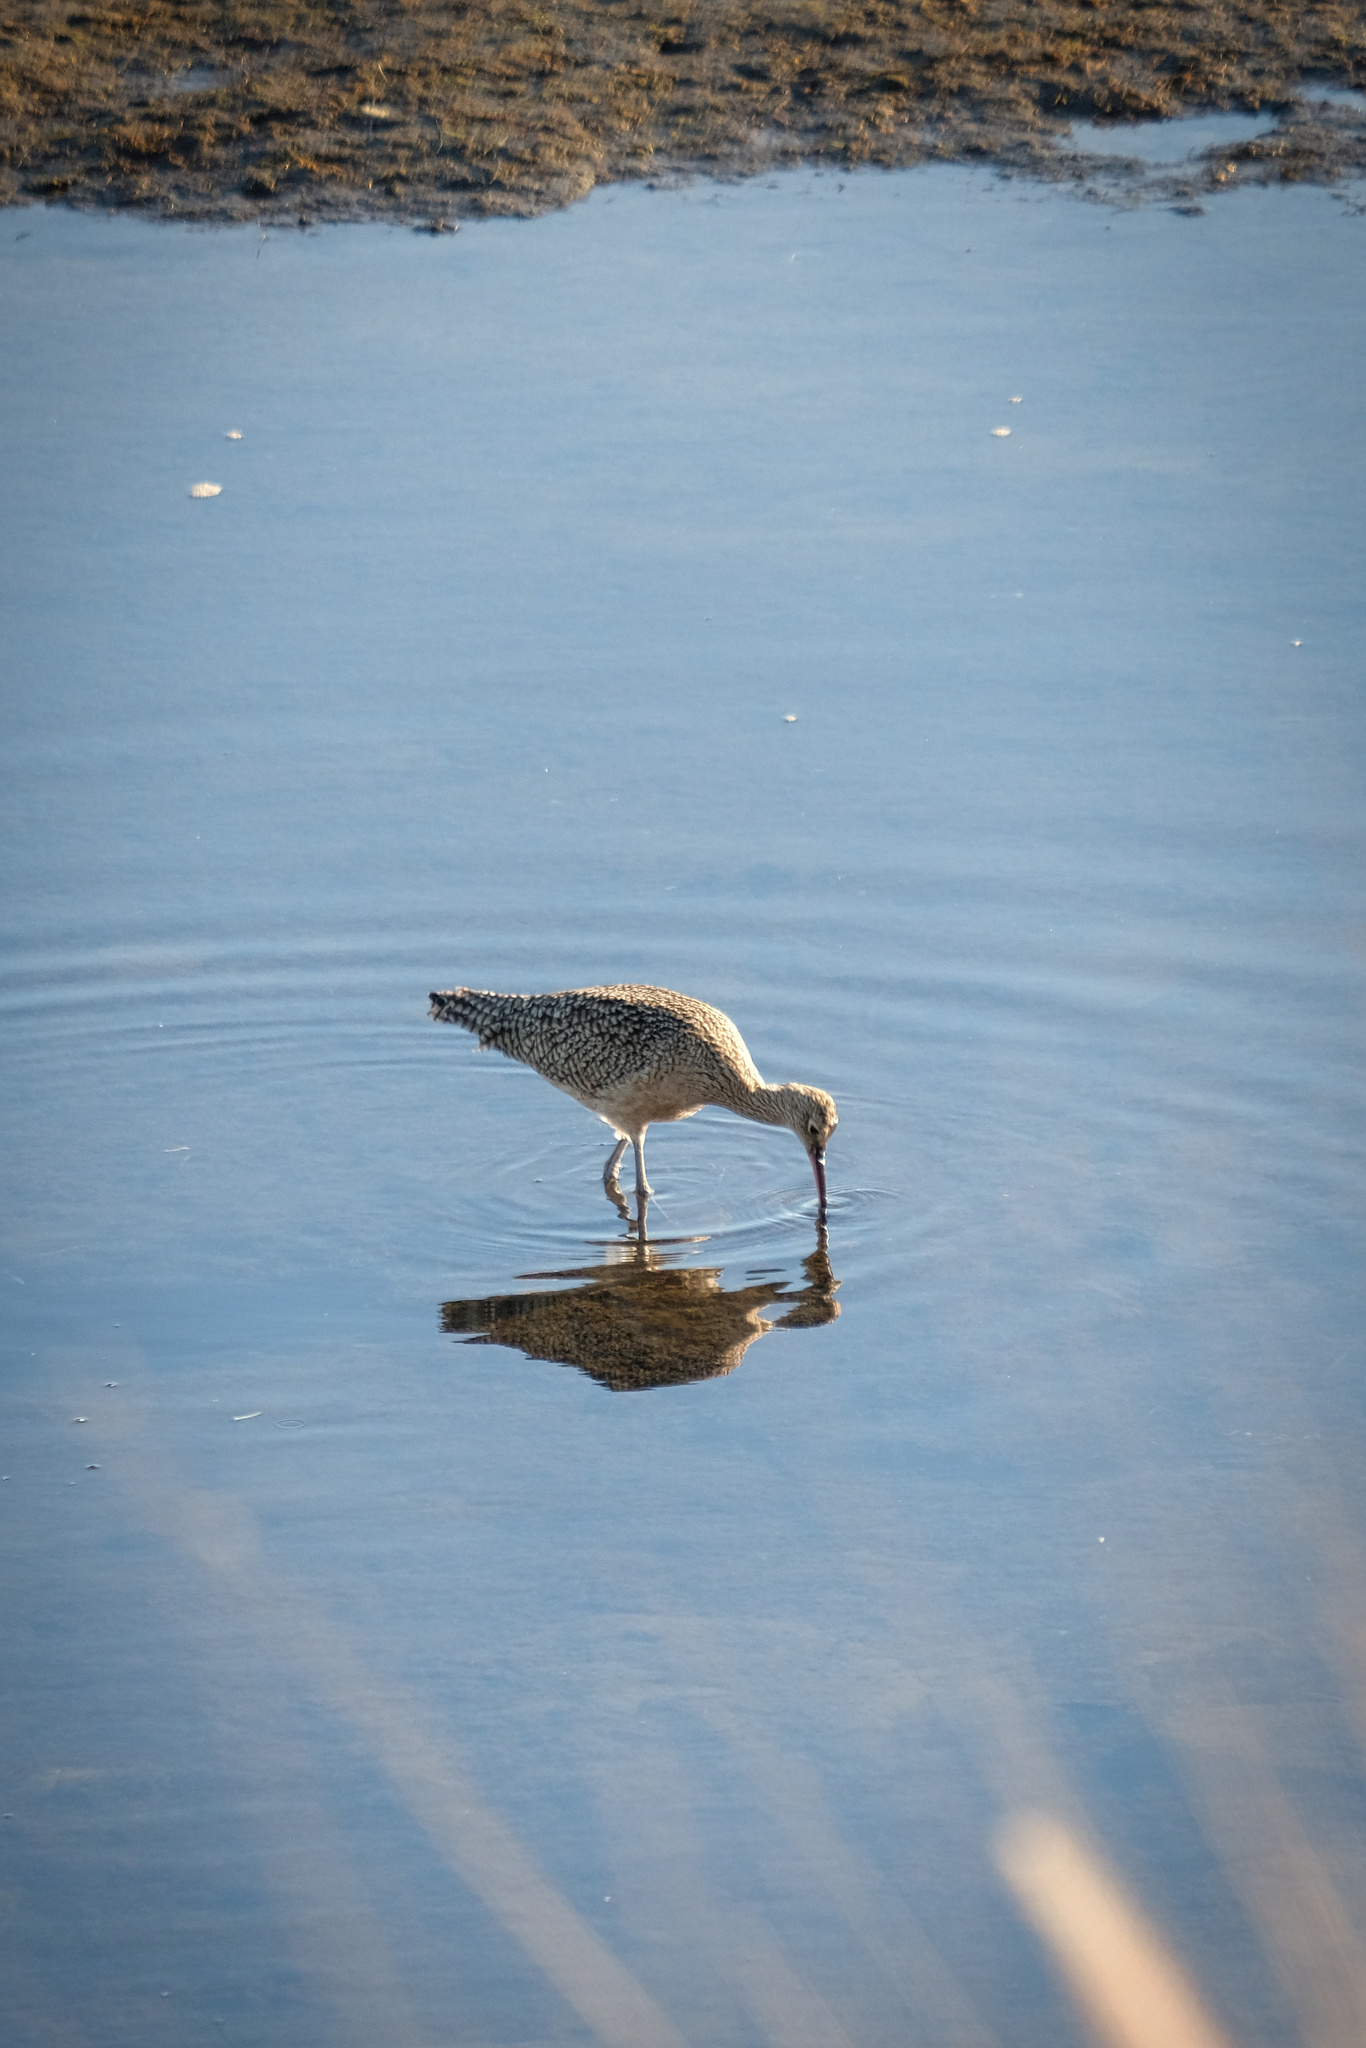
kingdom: Animalia
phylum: Chordata
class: Aves
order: Charadriiformes
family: Scolopacidae
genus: Numenius
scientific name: Numenius americanus
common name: Long-billed curlew
